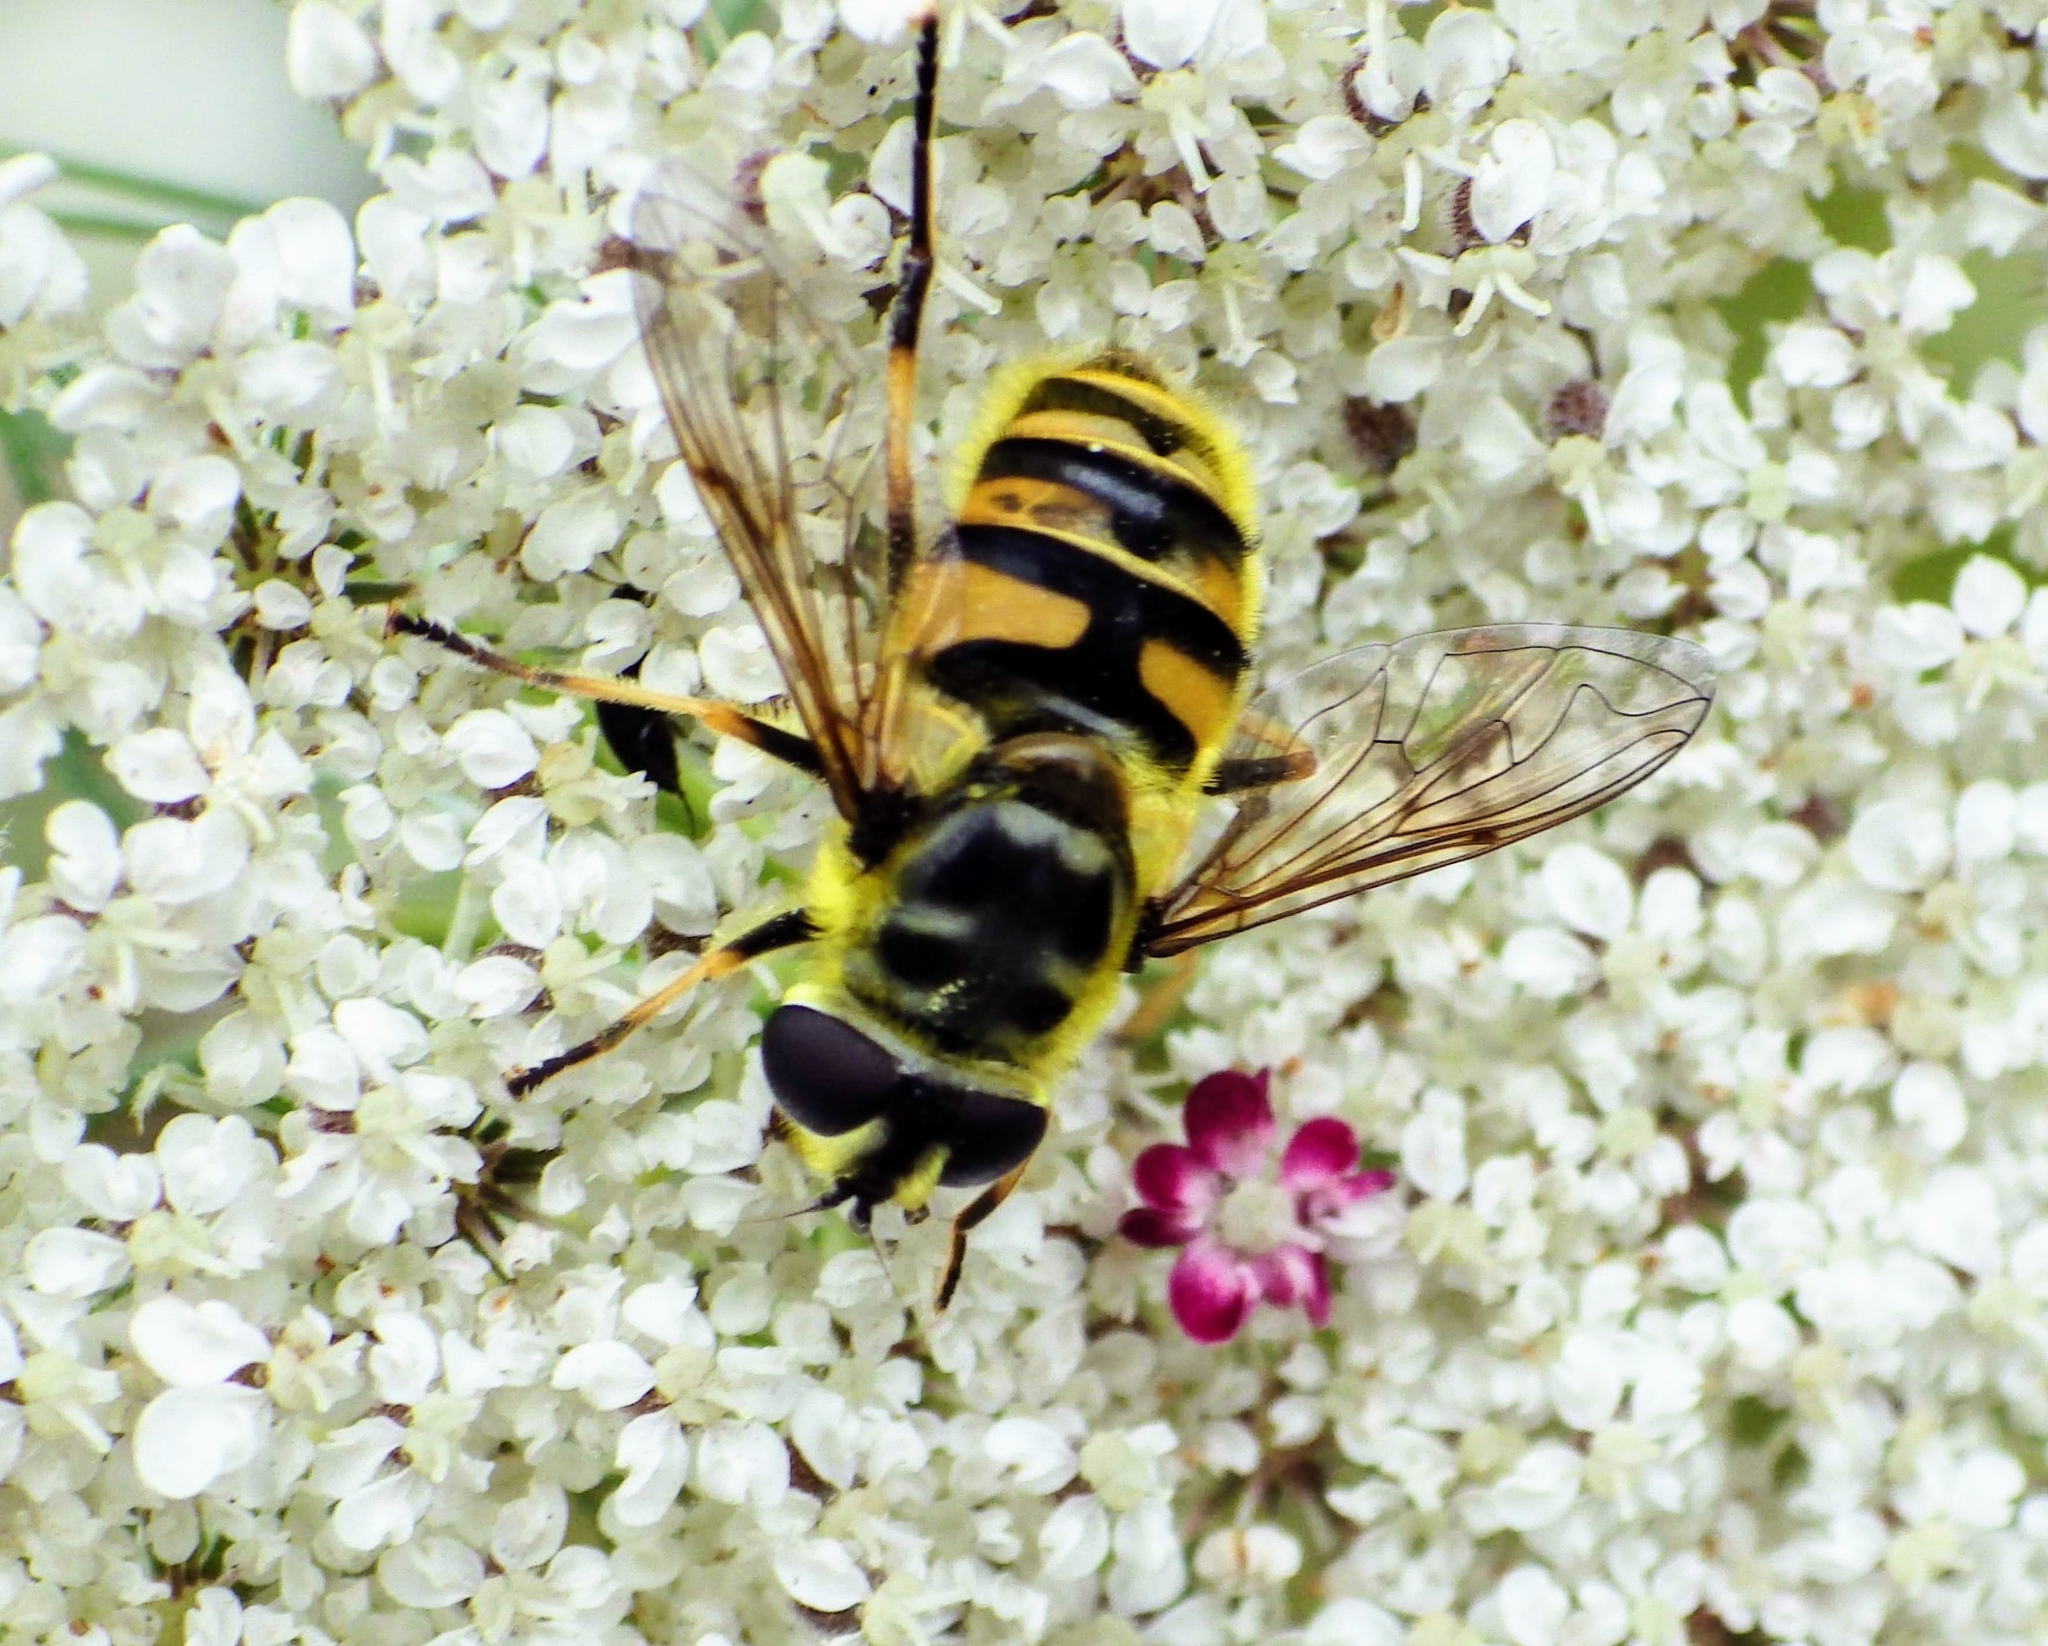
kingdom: Animalia
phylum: Arthropoda
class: Insecta
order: Diptera
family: Syrphidae
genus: Myathropa
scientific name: Myathropa florea
